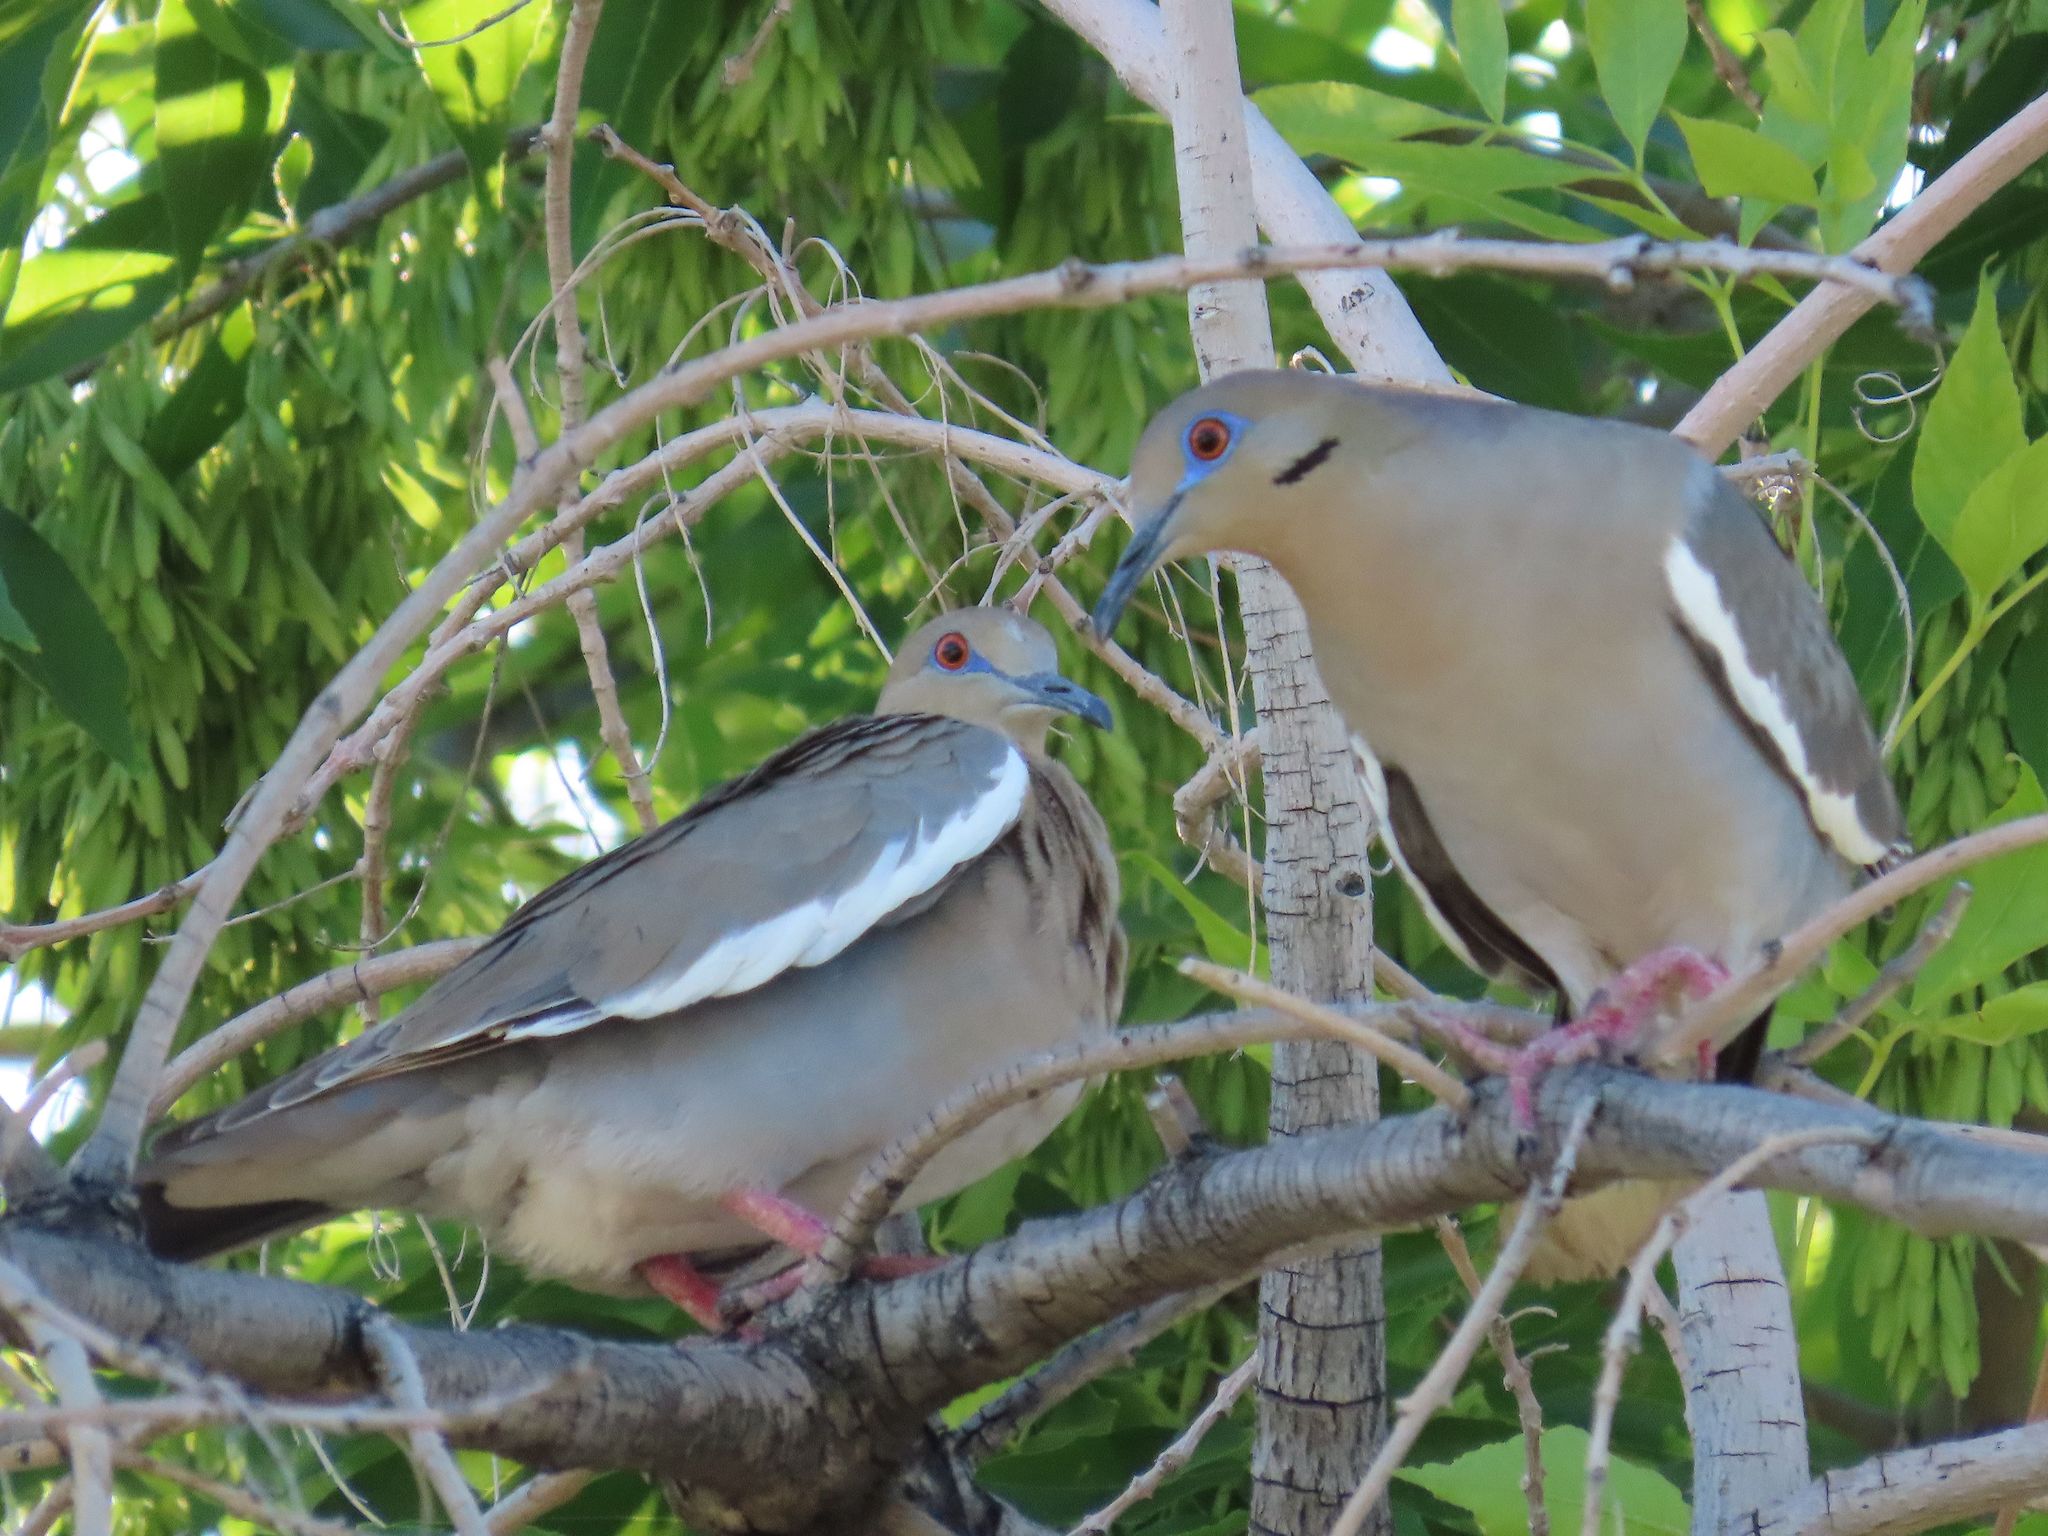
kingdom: Animalia
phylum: Chordata
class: Aves
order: Columbiformes
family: Columbidae
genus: Zenaida
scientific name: Zenaida asiatica
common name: White-winged dove
